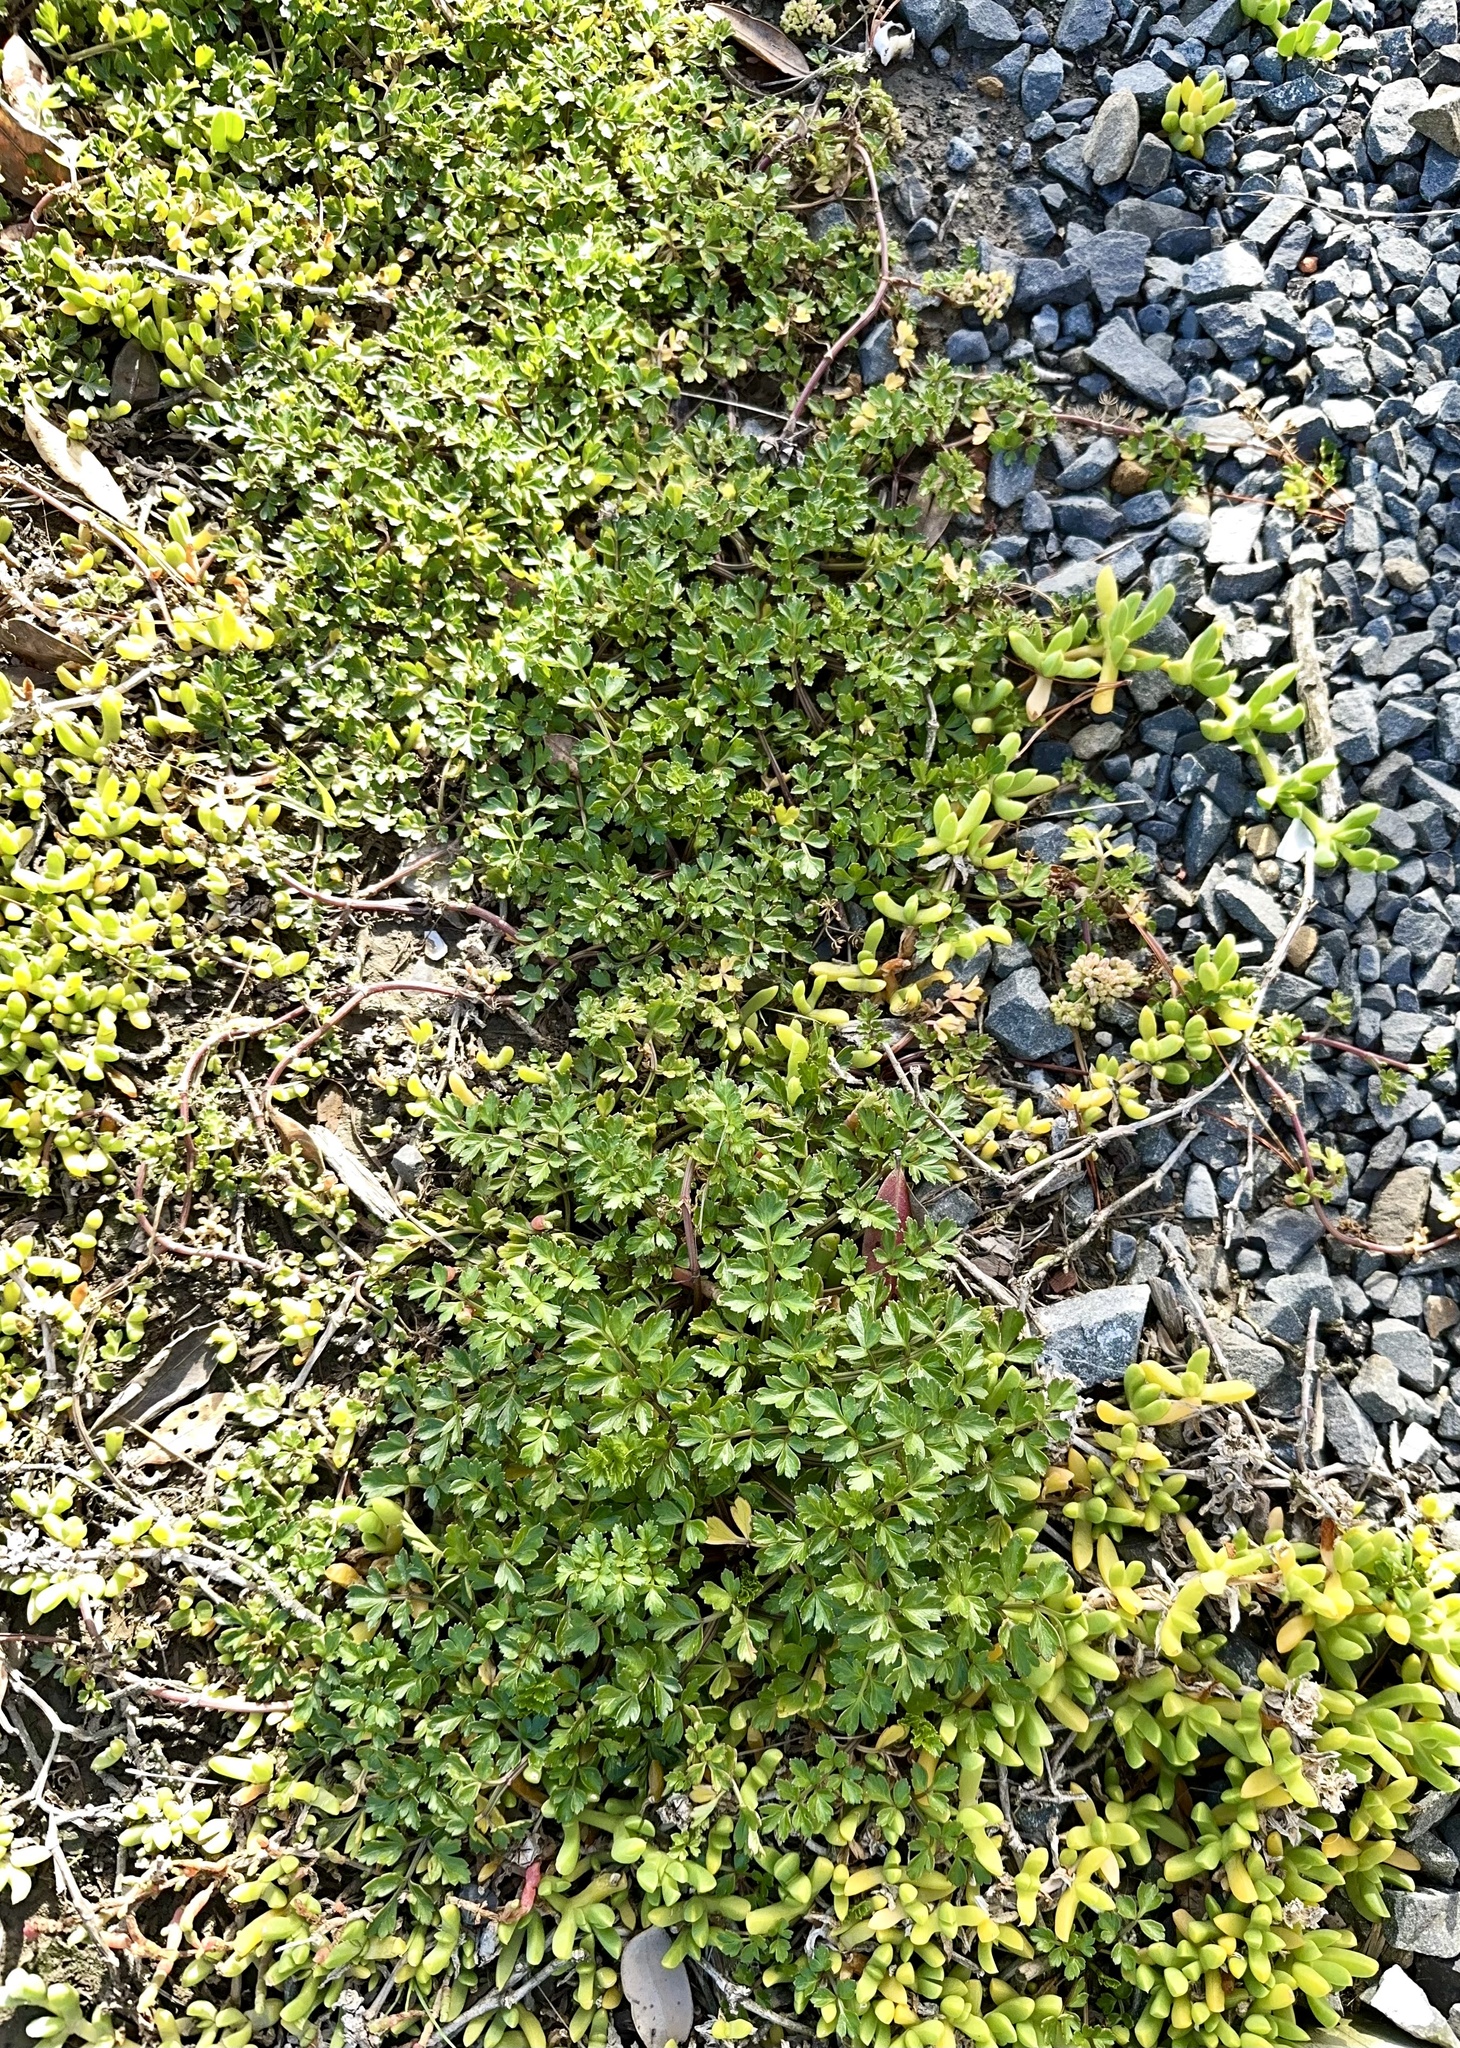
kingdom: Plantae
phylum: Tracheophyta
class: Magnoliopsida
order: Apiales
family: Apiaceae
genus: Apium
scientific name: Apium prostratum
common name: Prostrate marshwort
